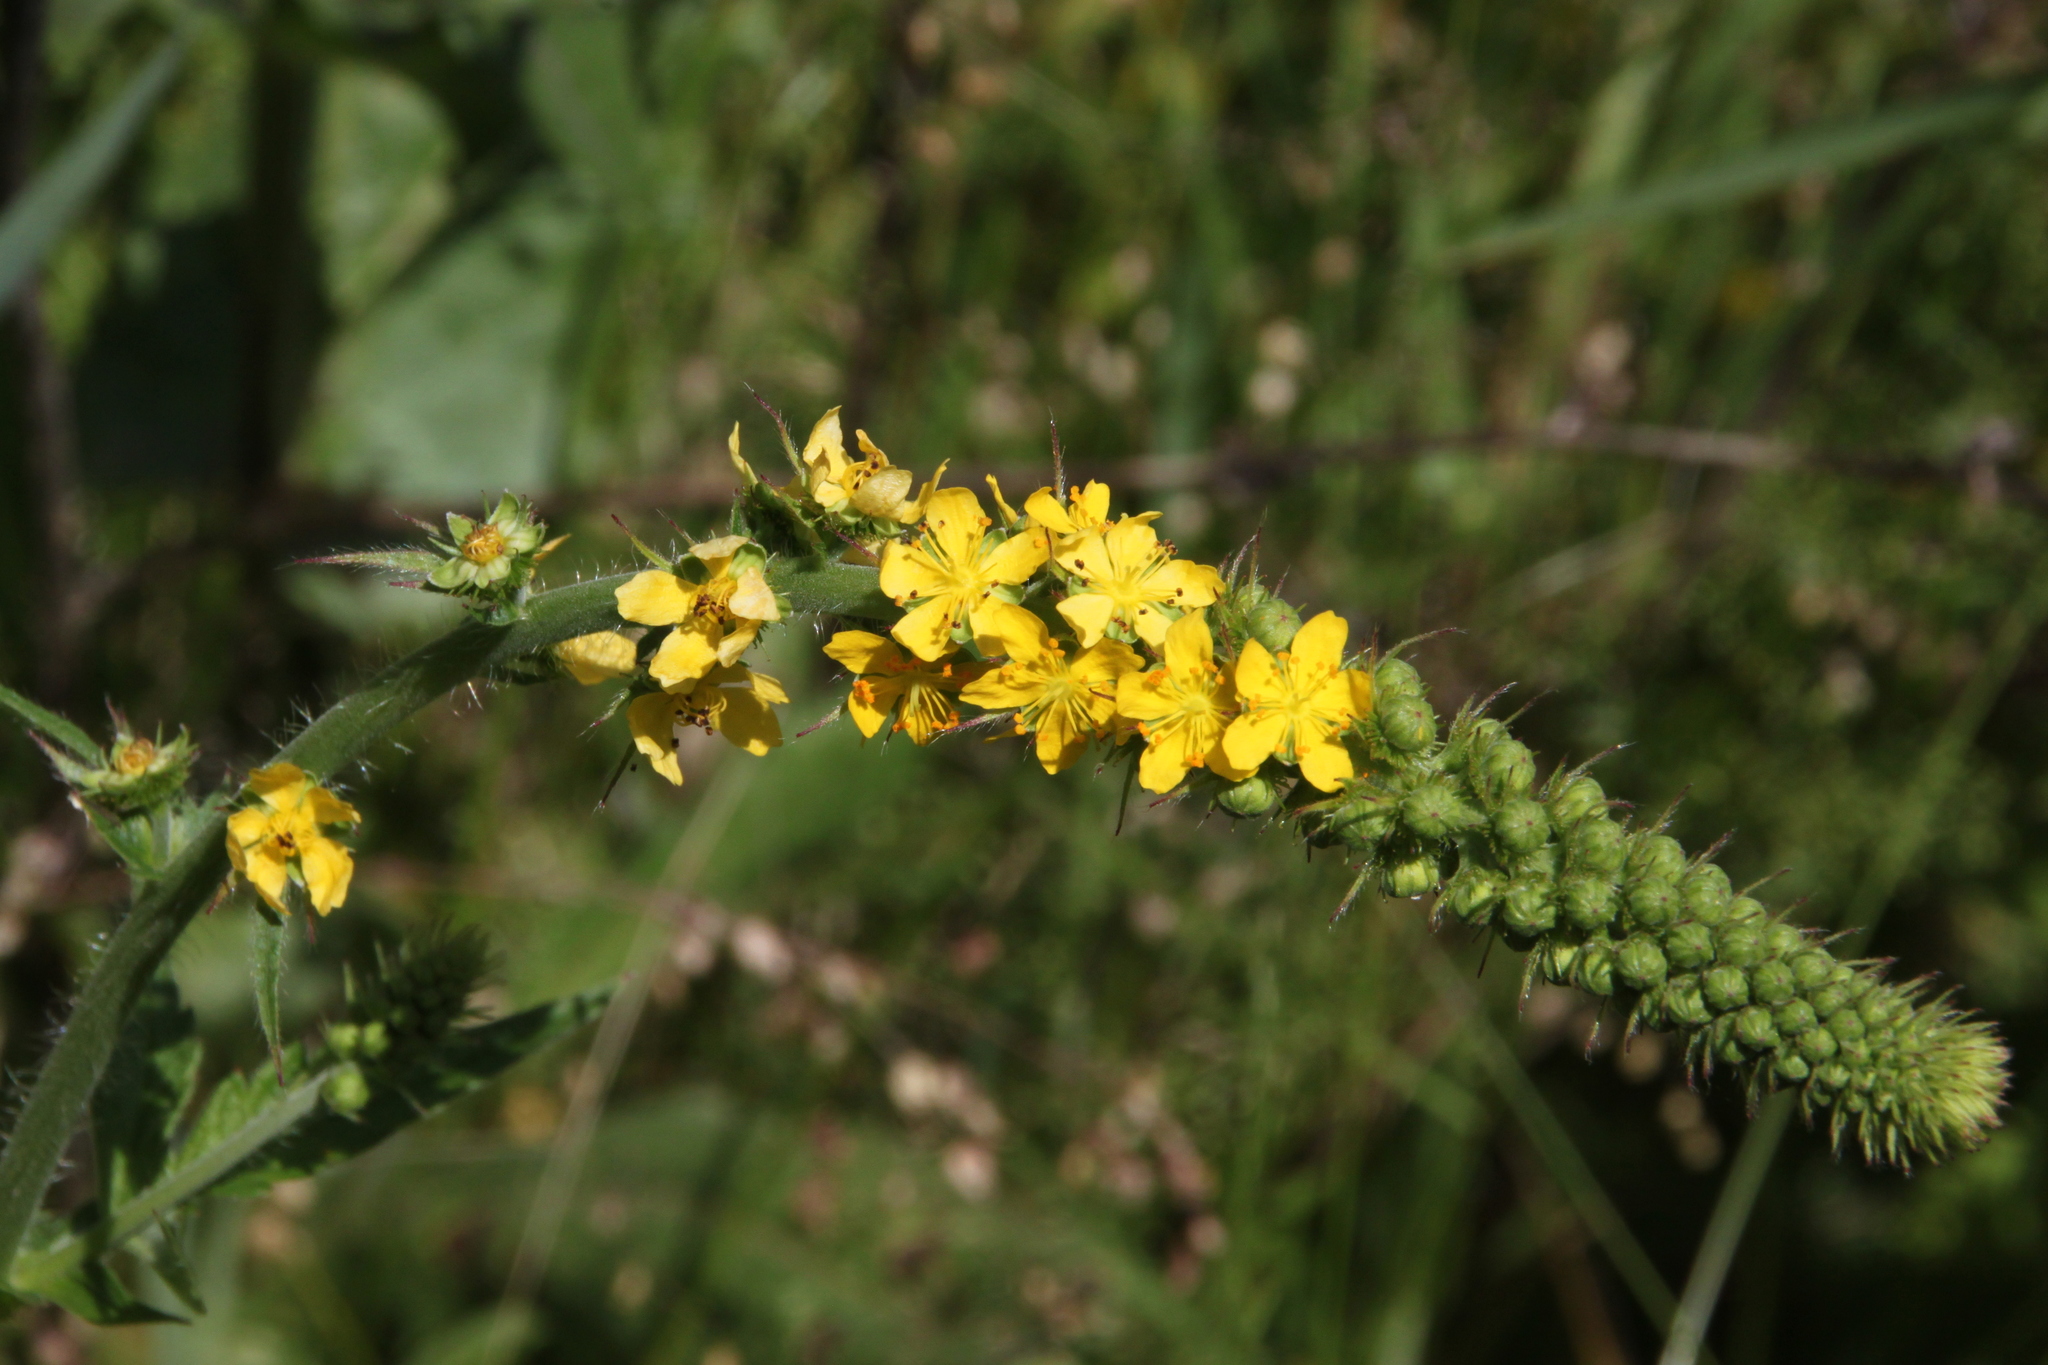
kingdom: Plantae
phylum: Tracheophyta
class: Magnoliopsida
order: Rosales
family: Rosaceae
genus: Agrimonia
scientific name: Agrimonia eupatoria
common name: Agrimony
